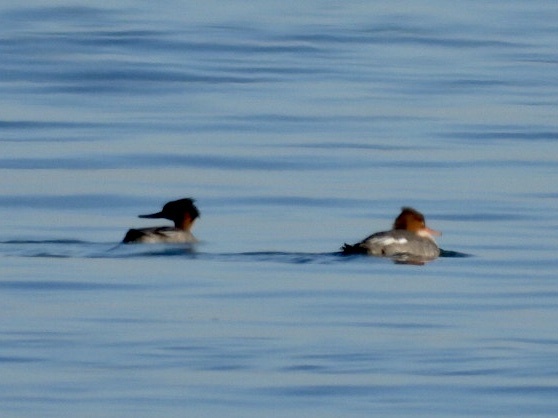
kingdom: Animalia
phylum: Chordata
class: Aves
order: Anseriformes
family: Anatidae
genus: Mergus
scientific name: Mergus merganser
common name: Common merganser
